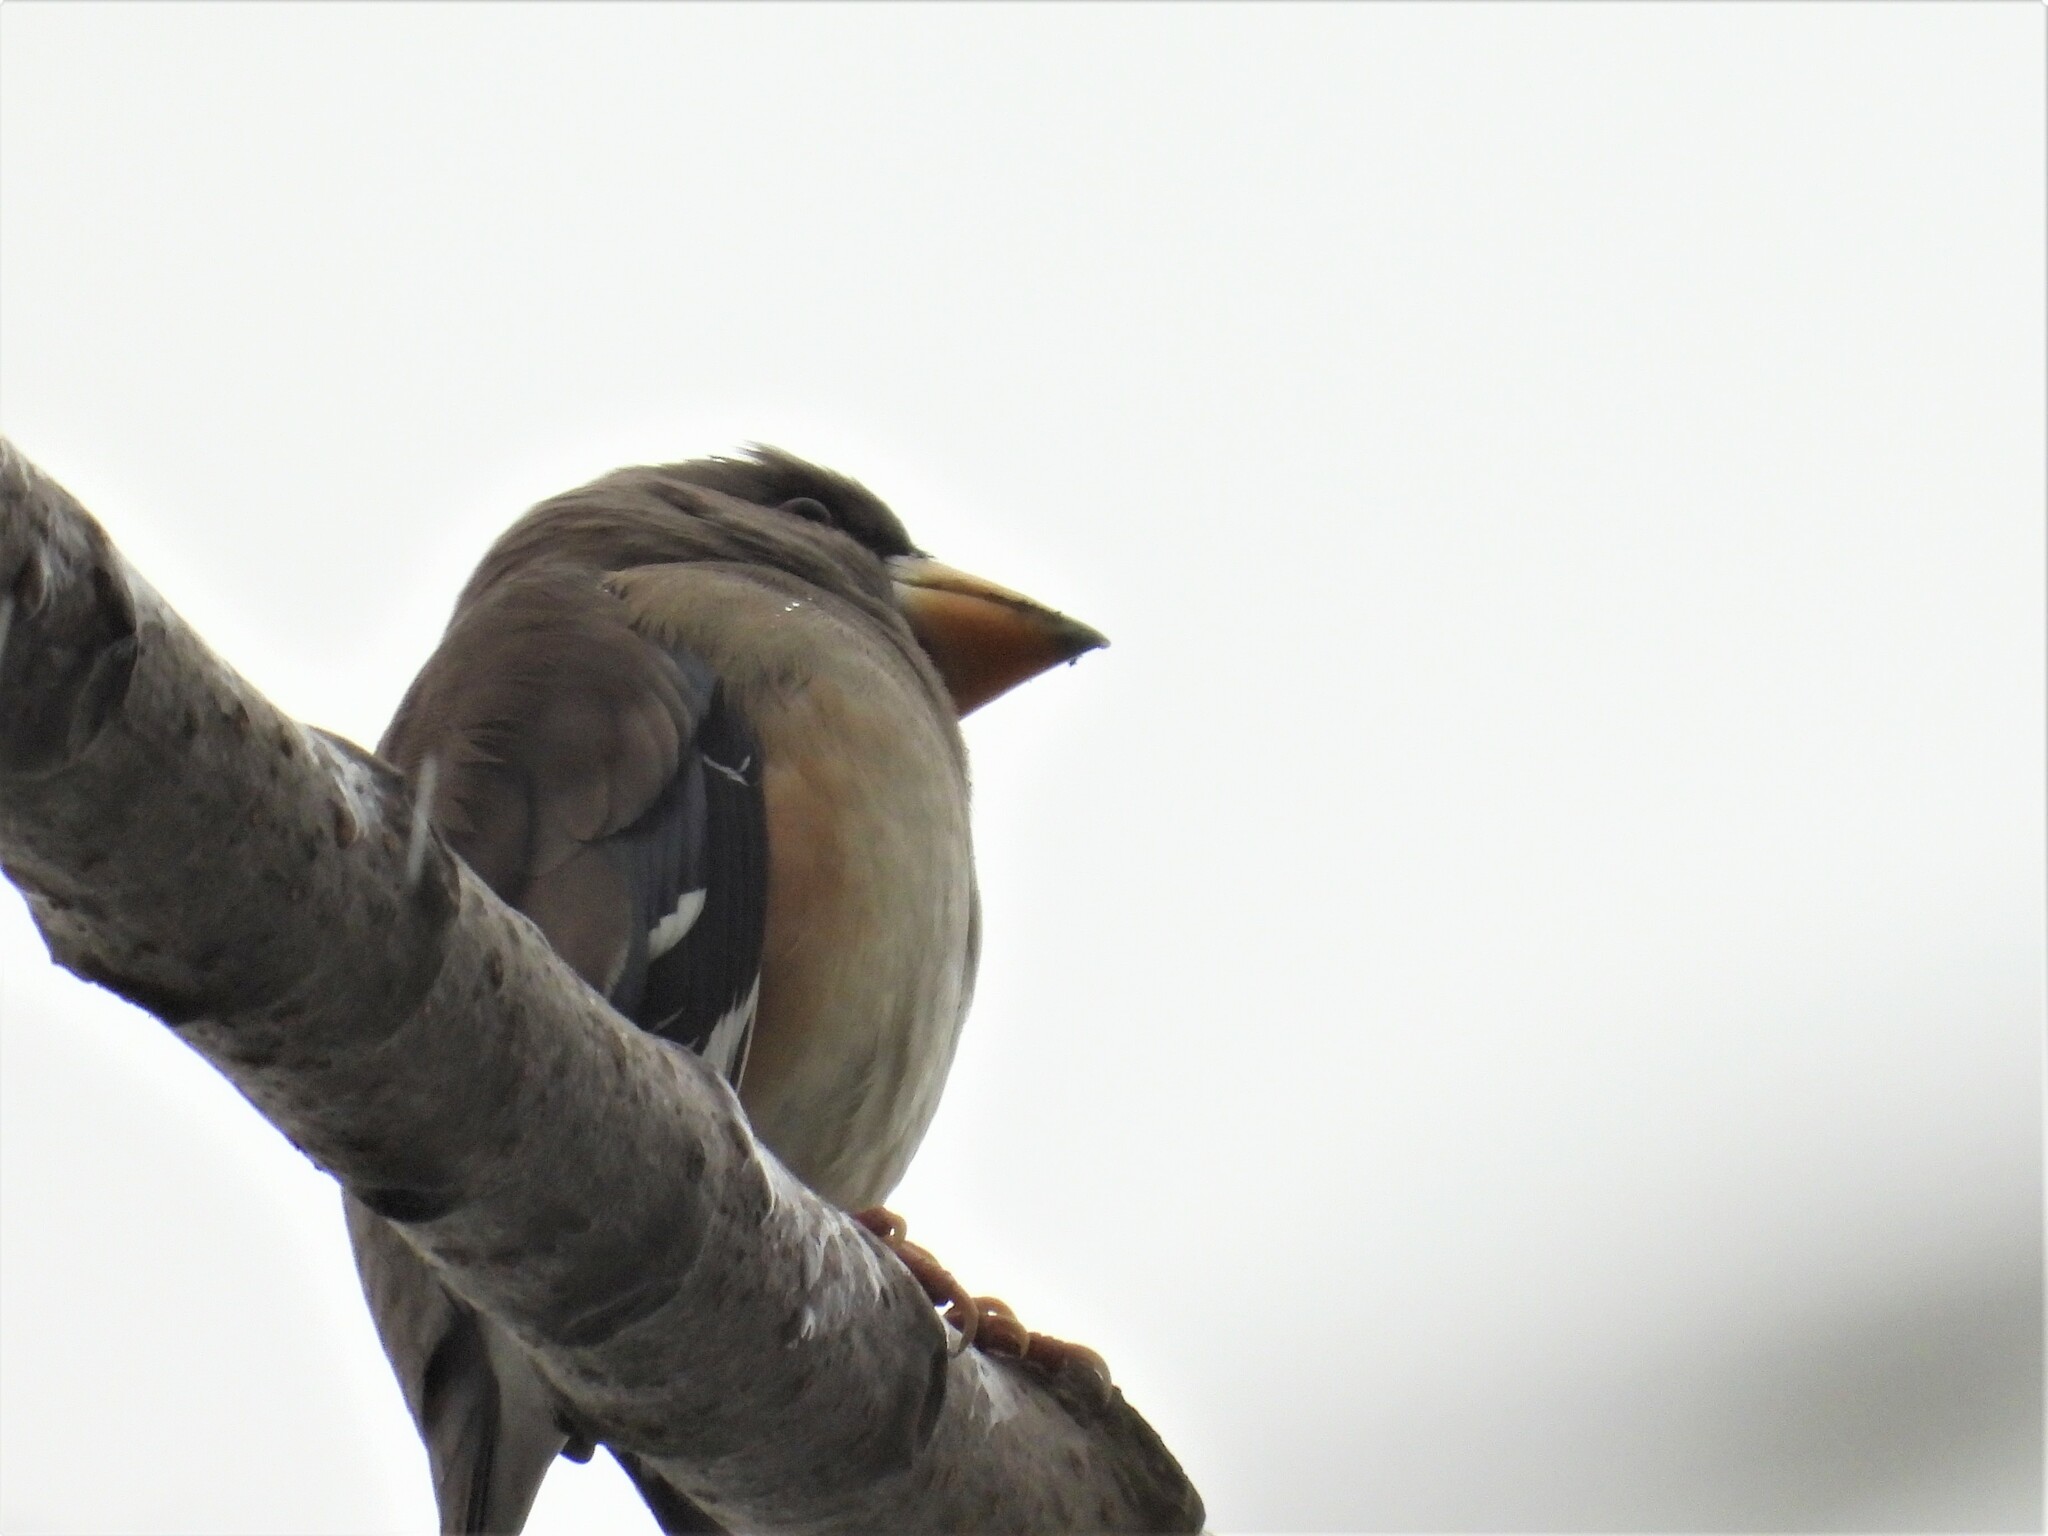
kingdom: Animalia
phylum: Chordata
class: Aves
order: Passeriformes
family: Fringillidae
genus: Eophona
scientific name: Eophona migratoria
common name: Yellow-billed grosbeak
